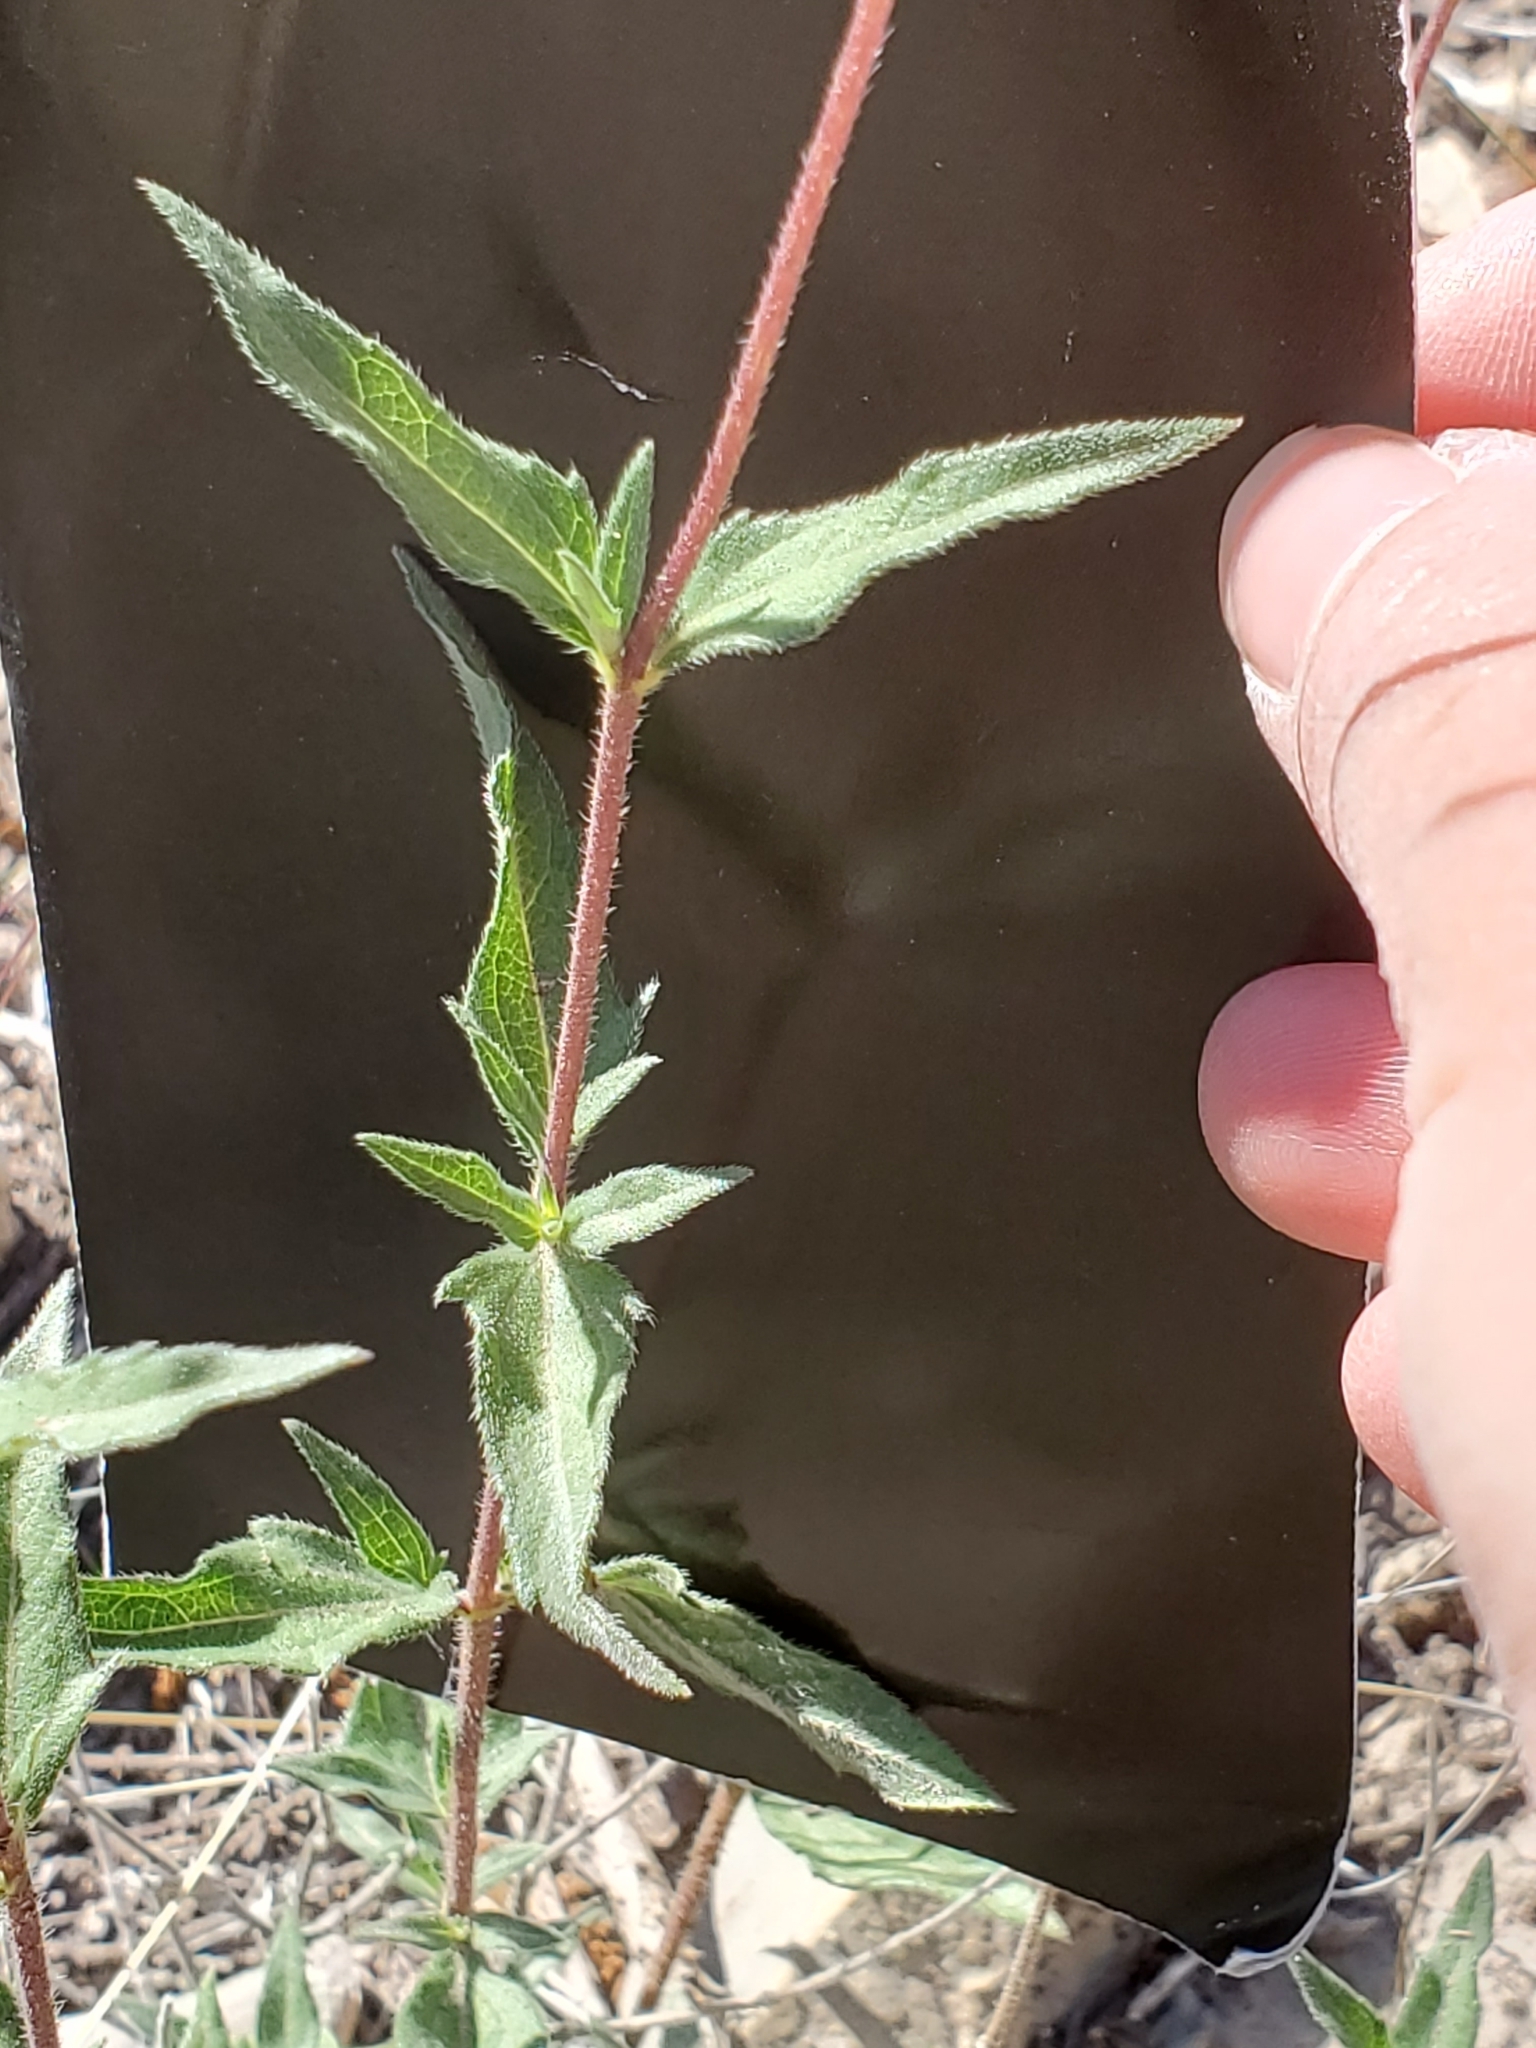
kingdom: Plantae
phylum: Tracheophyta
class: Magnoliopsida
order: Asterales
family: Asteraceae
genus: Wedelia
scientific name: Wedelia acapulcensis
